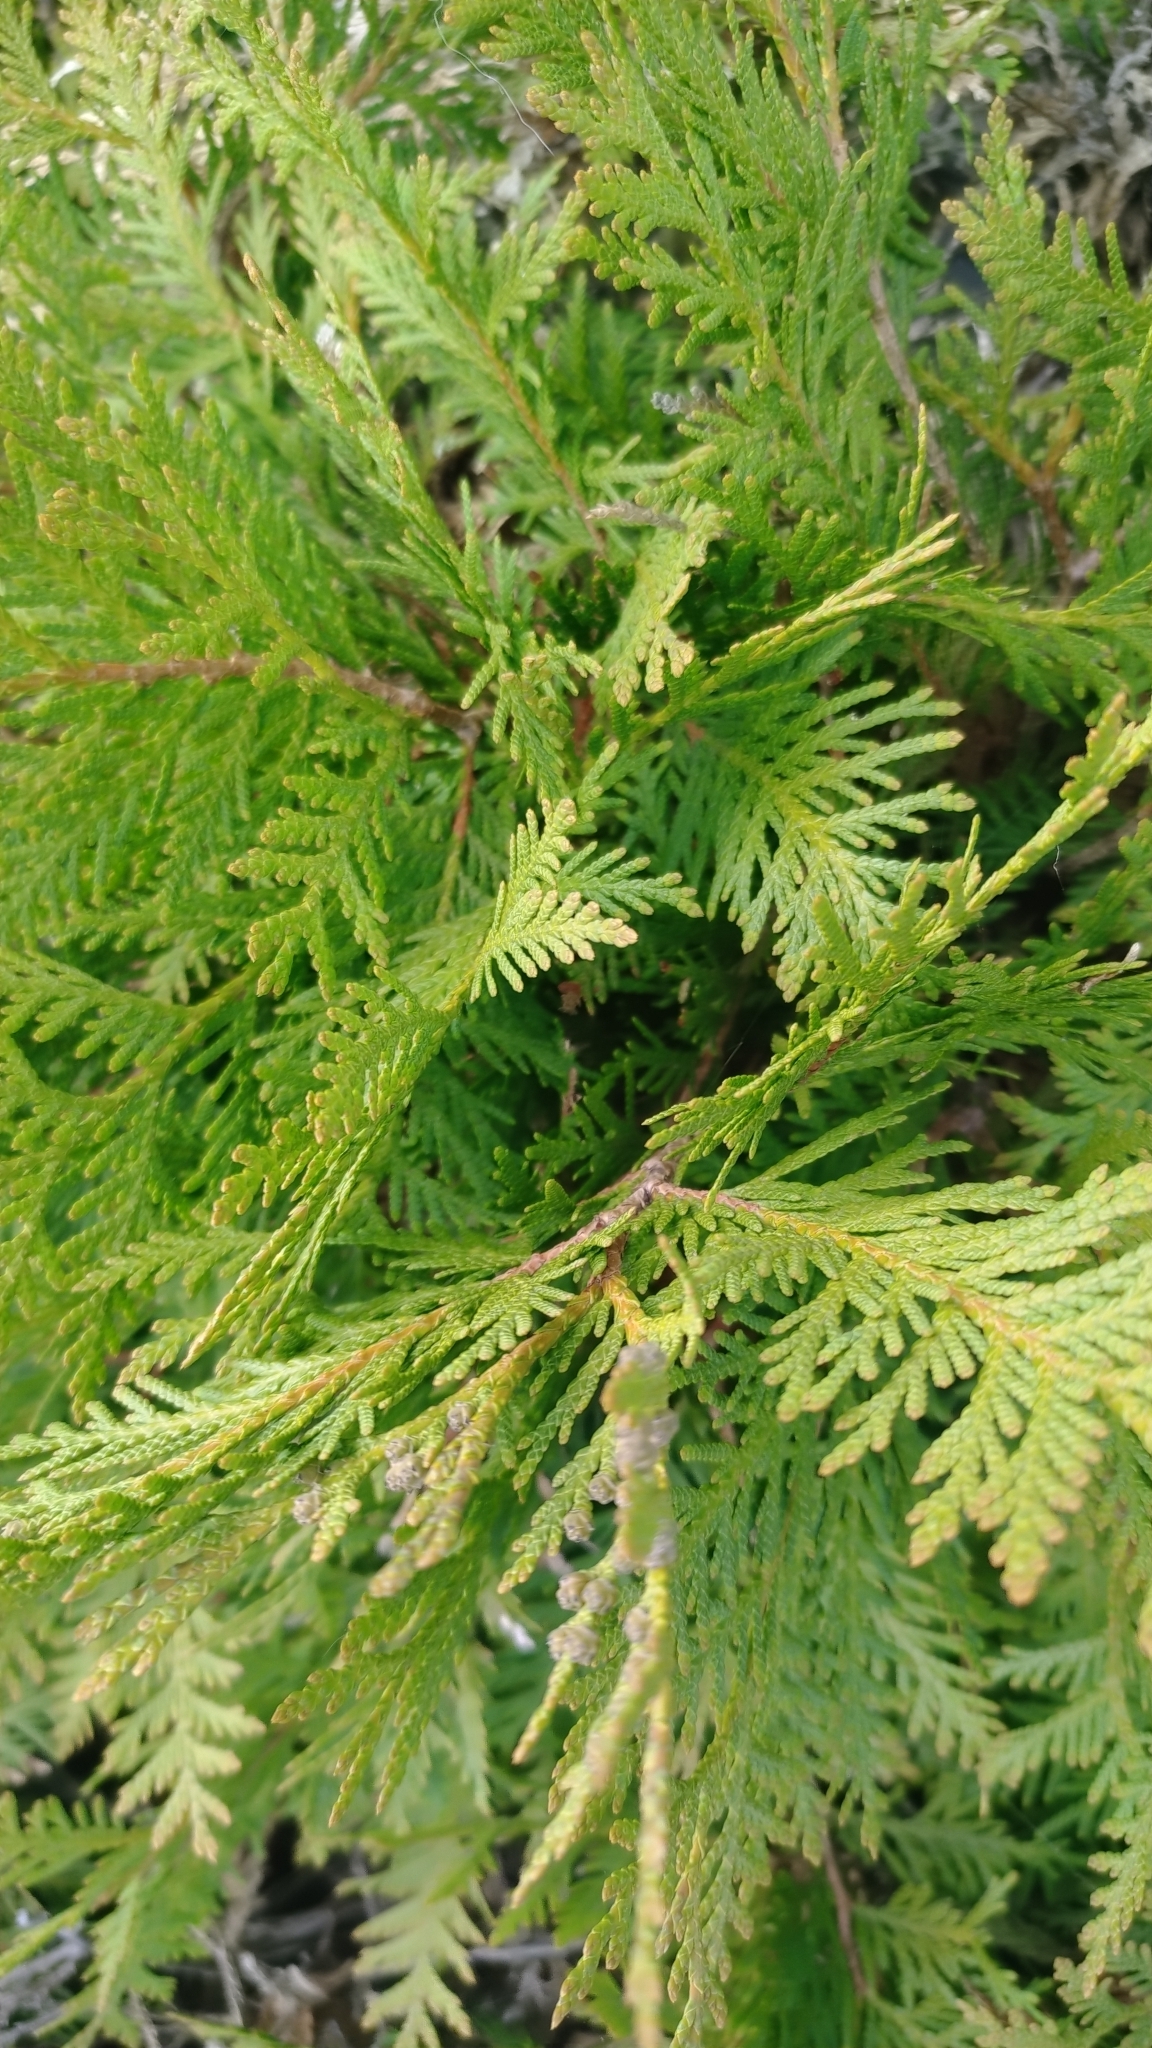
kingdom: Plantae
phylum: Tracheophyta
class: Pinopsida
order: Pinales
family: Cupressaceae
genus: Thuja
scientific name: Thuja occidentalis
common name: Northern white-cedar
